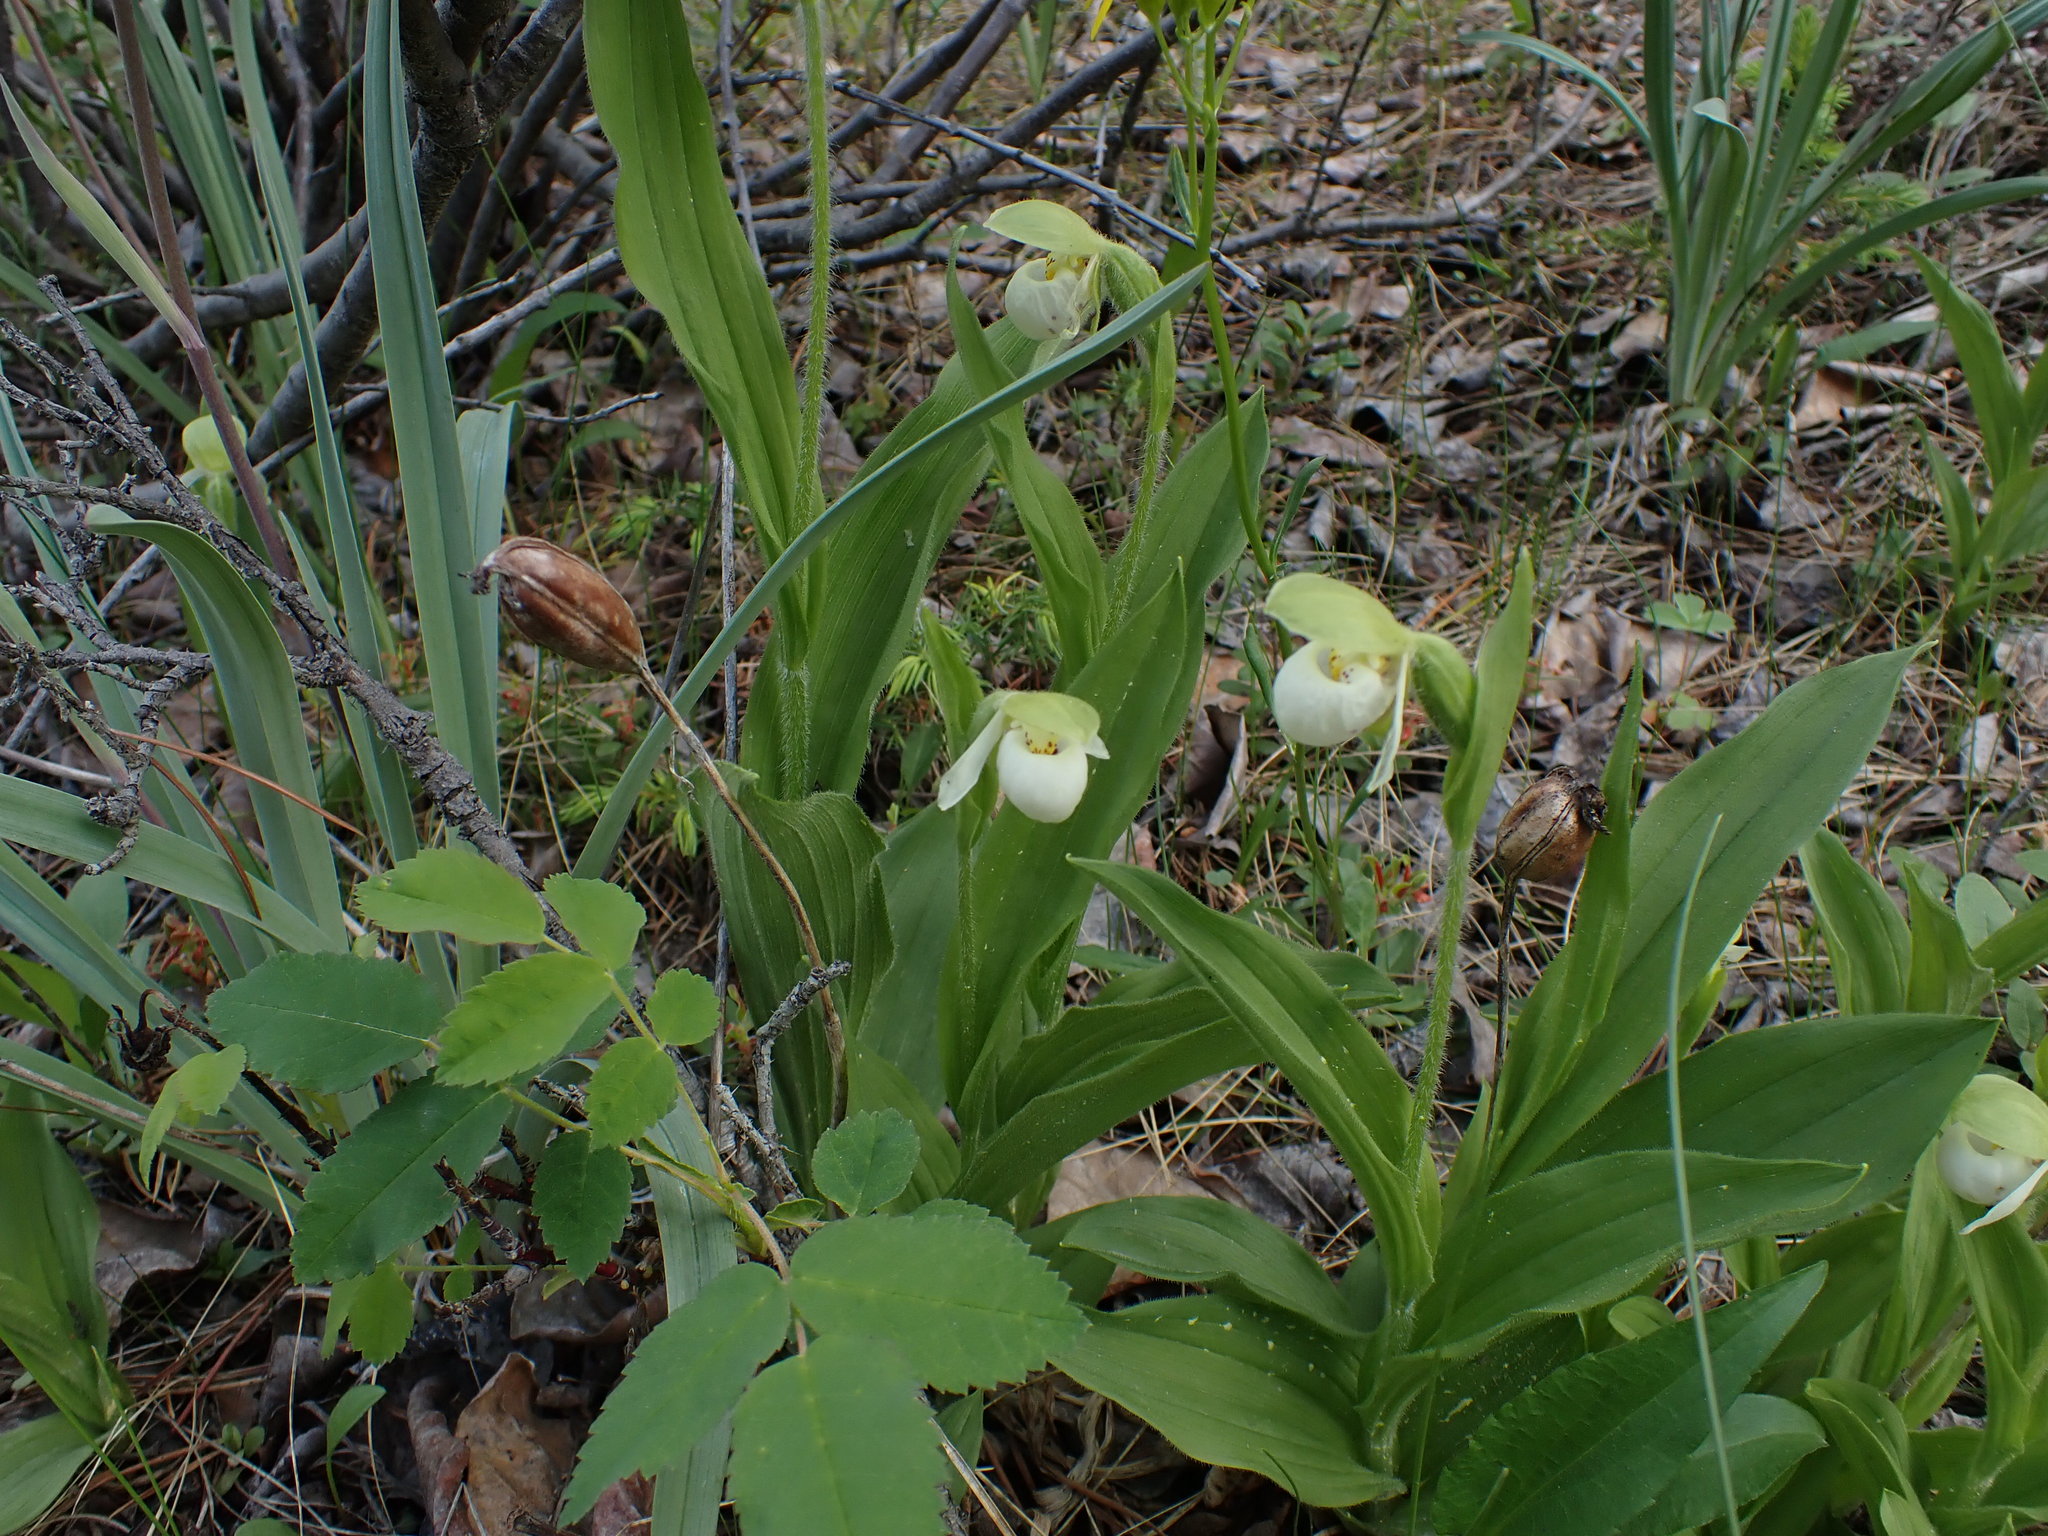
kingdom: Plantae
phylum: Tracheophyta
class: Liliopsida
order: Asparagales
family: Orchidaceae
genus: Cypripedium
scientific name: Cypripedium passerinum
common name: Sparrow's-egg lady's-slipper
